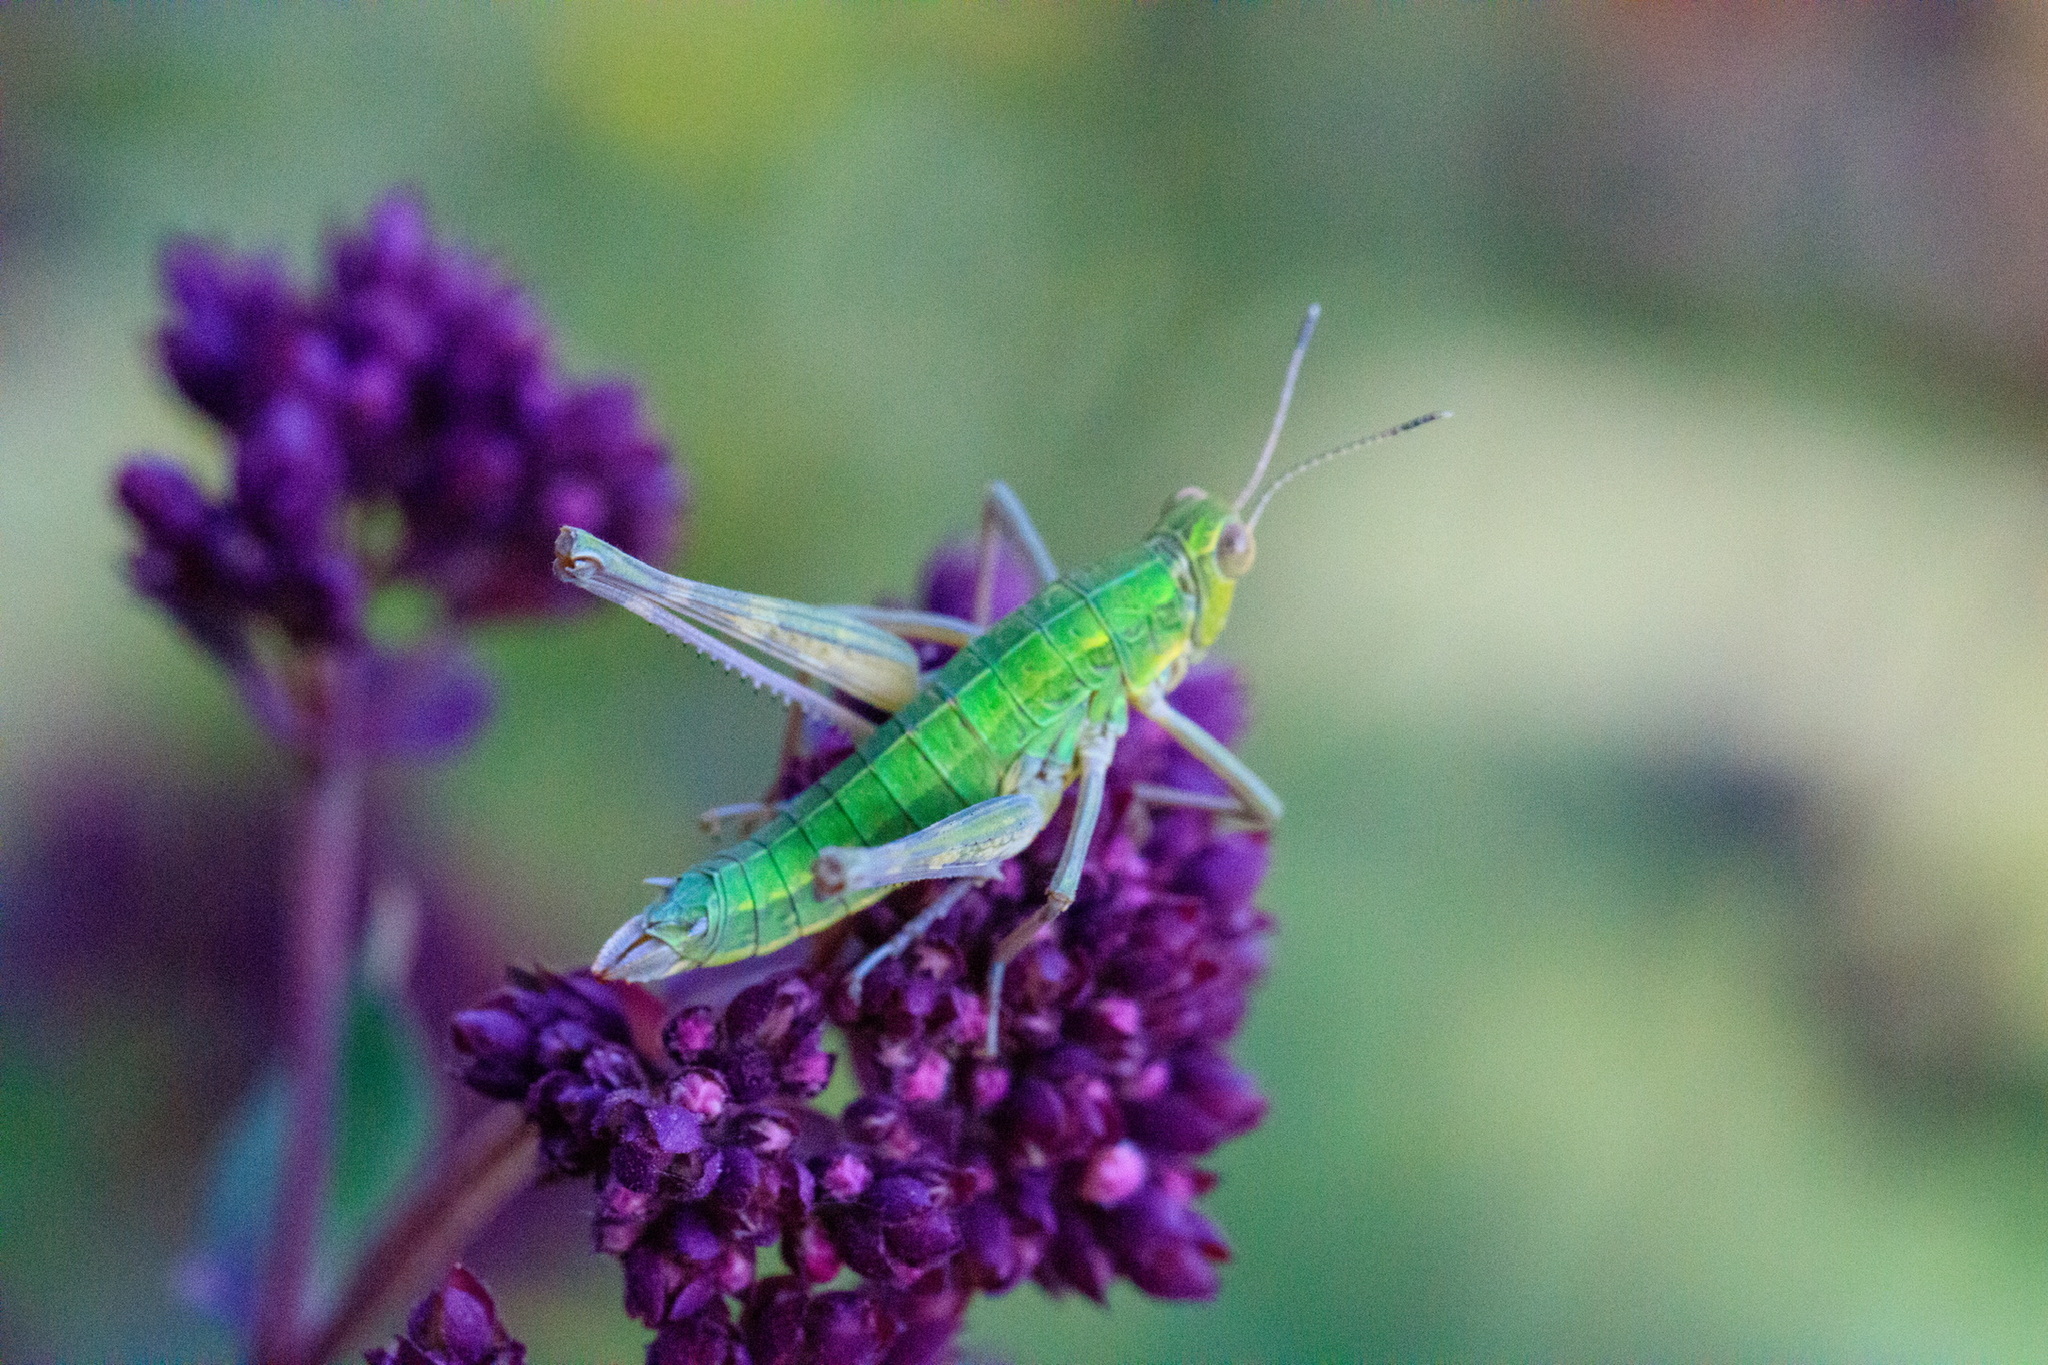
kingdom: Animalia
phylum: Arthropoda
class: Insecta
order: Orthoptera
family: Eumastacidae
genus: Gomphomastax
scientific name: Gomphomastax clavata
